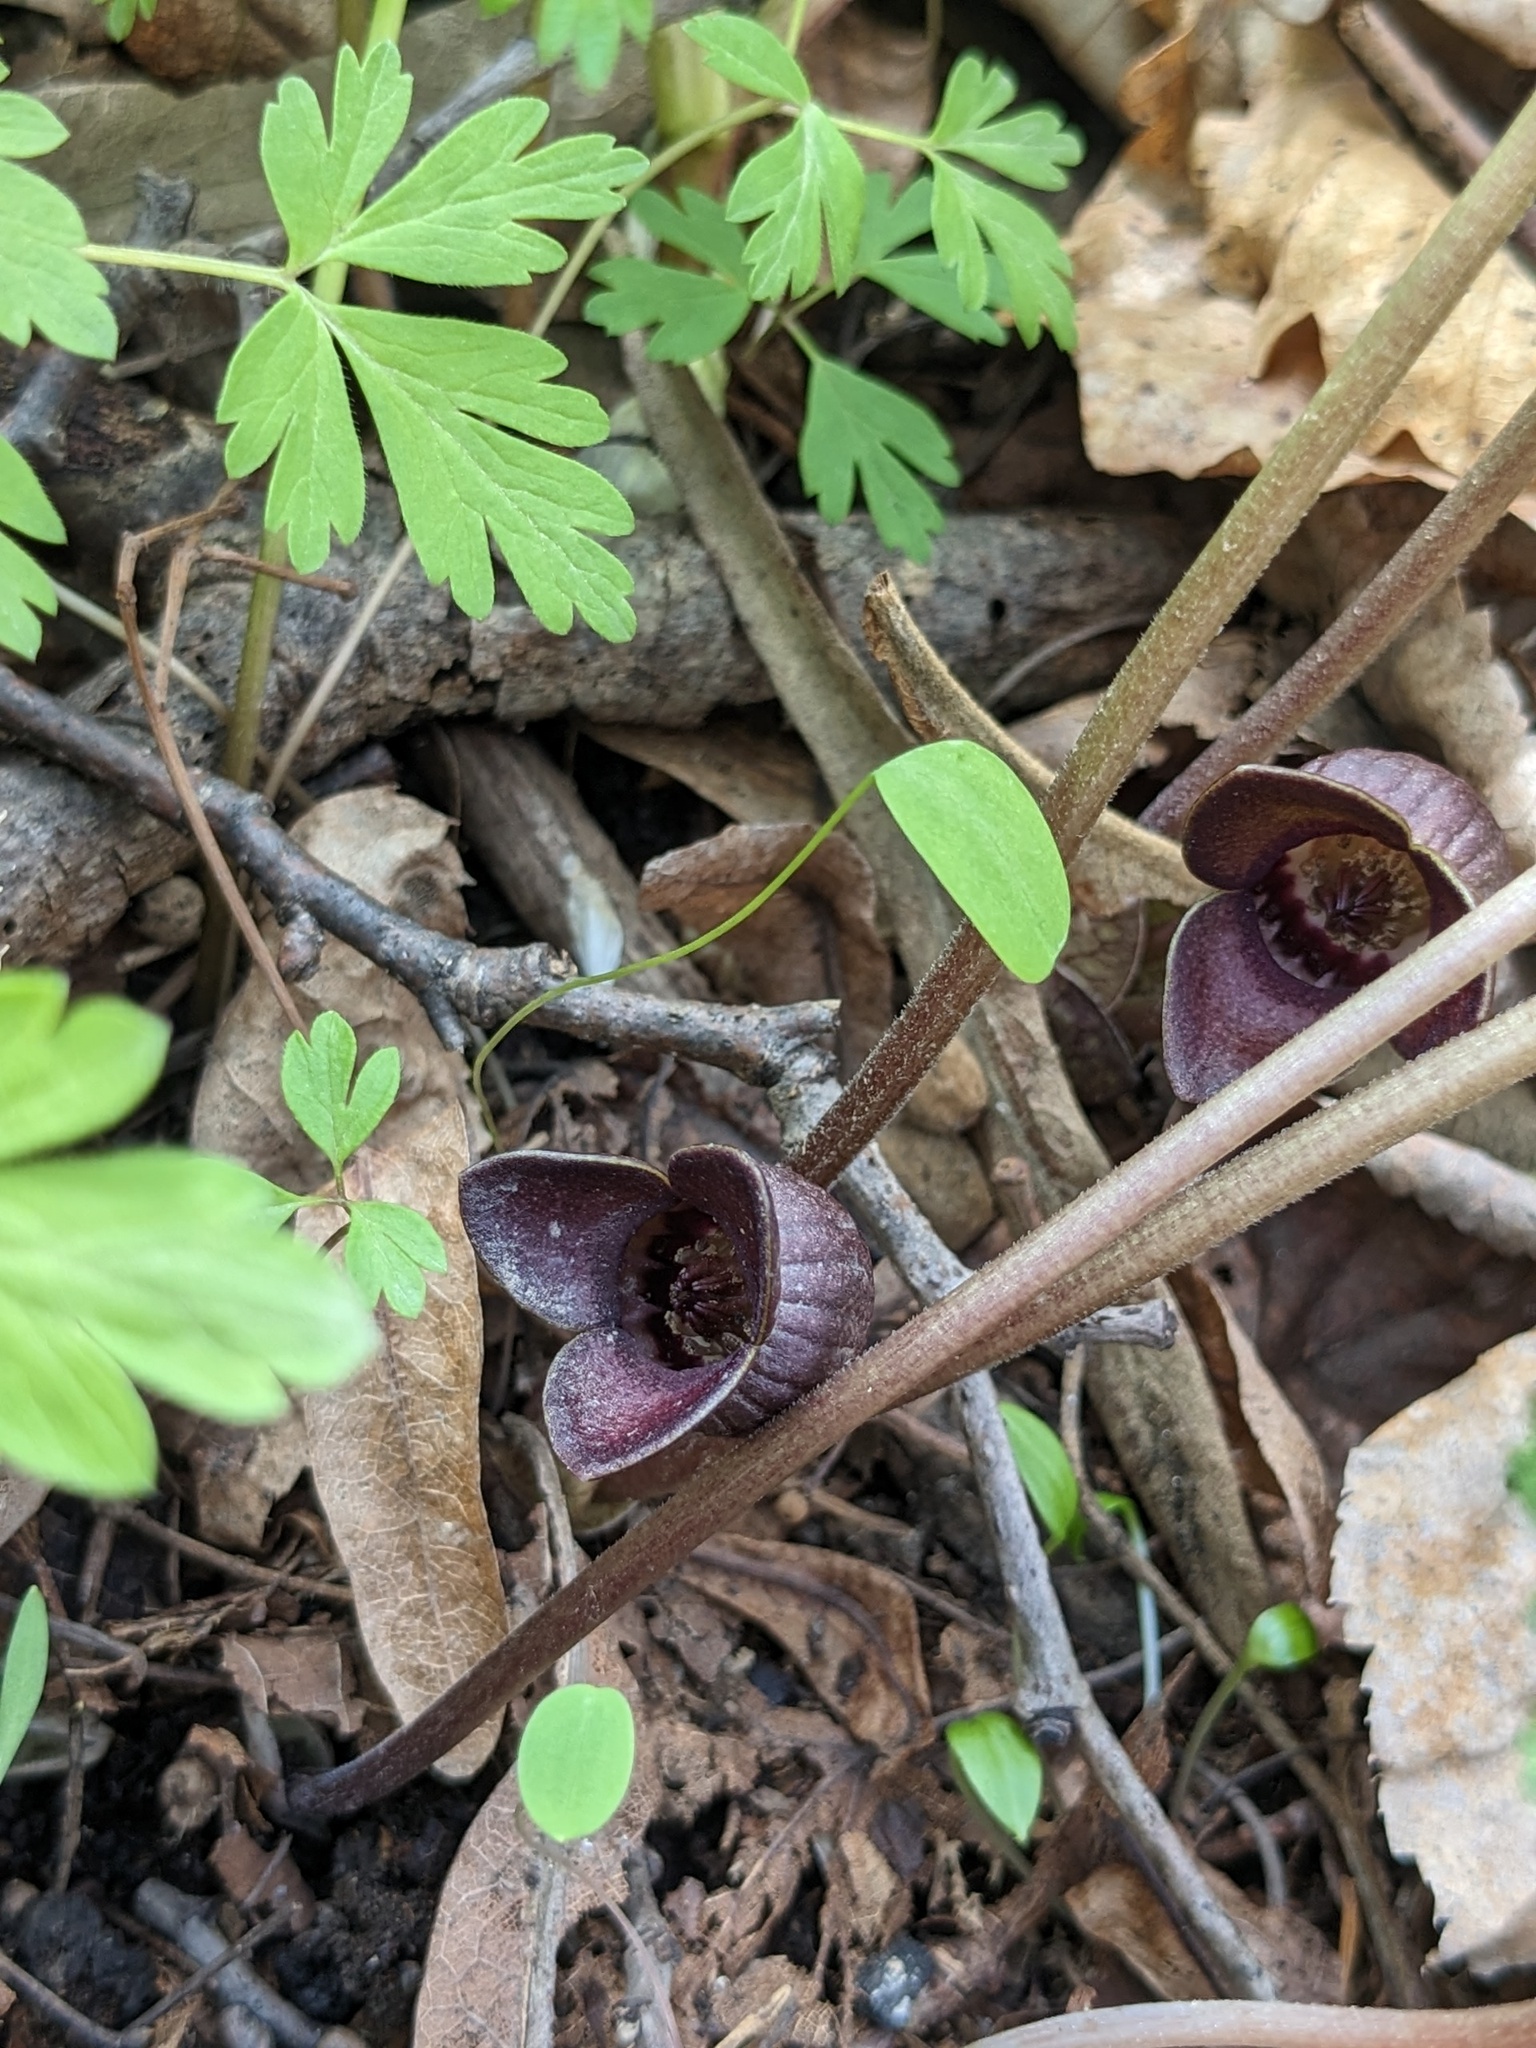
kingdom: Plantae
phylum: Tracheophyta
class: Magnoliopsida
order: Piperales
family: Aristolochiaceae
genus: Asarum
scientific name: Asarum sieboldii
